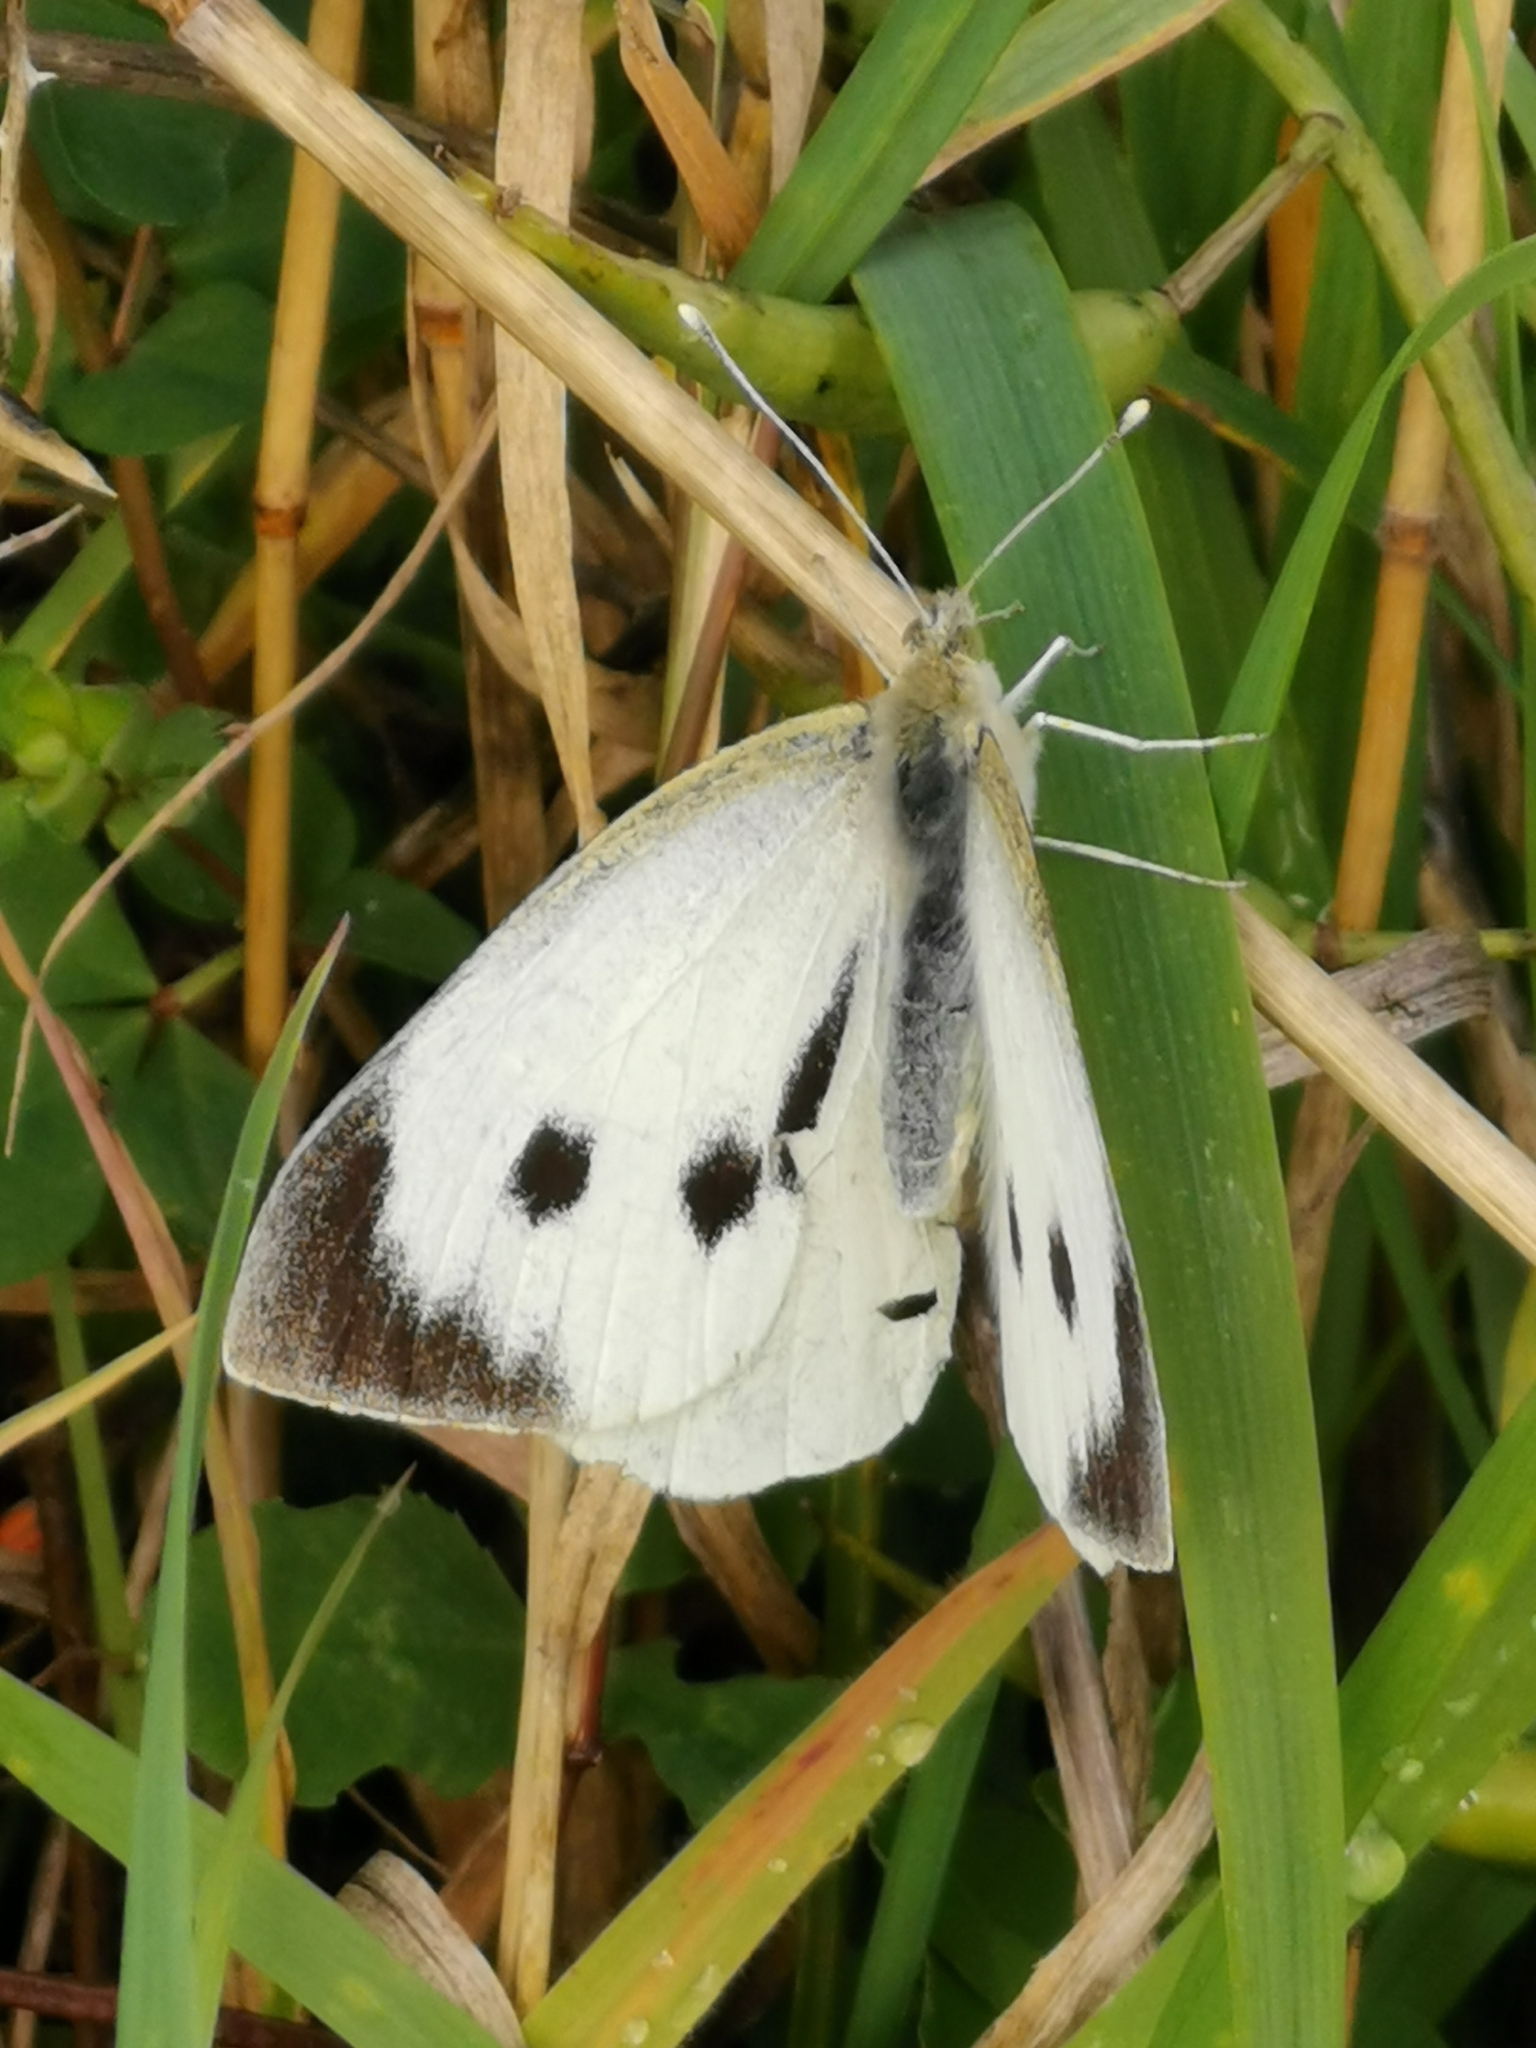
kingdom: Animalia
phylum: Arthropoda
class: Insecta
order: Lepidoptera
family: Pieridae
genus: Pieris
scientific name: Pieris brassicae
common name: Large white
